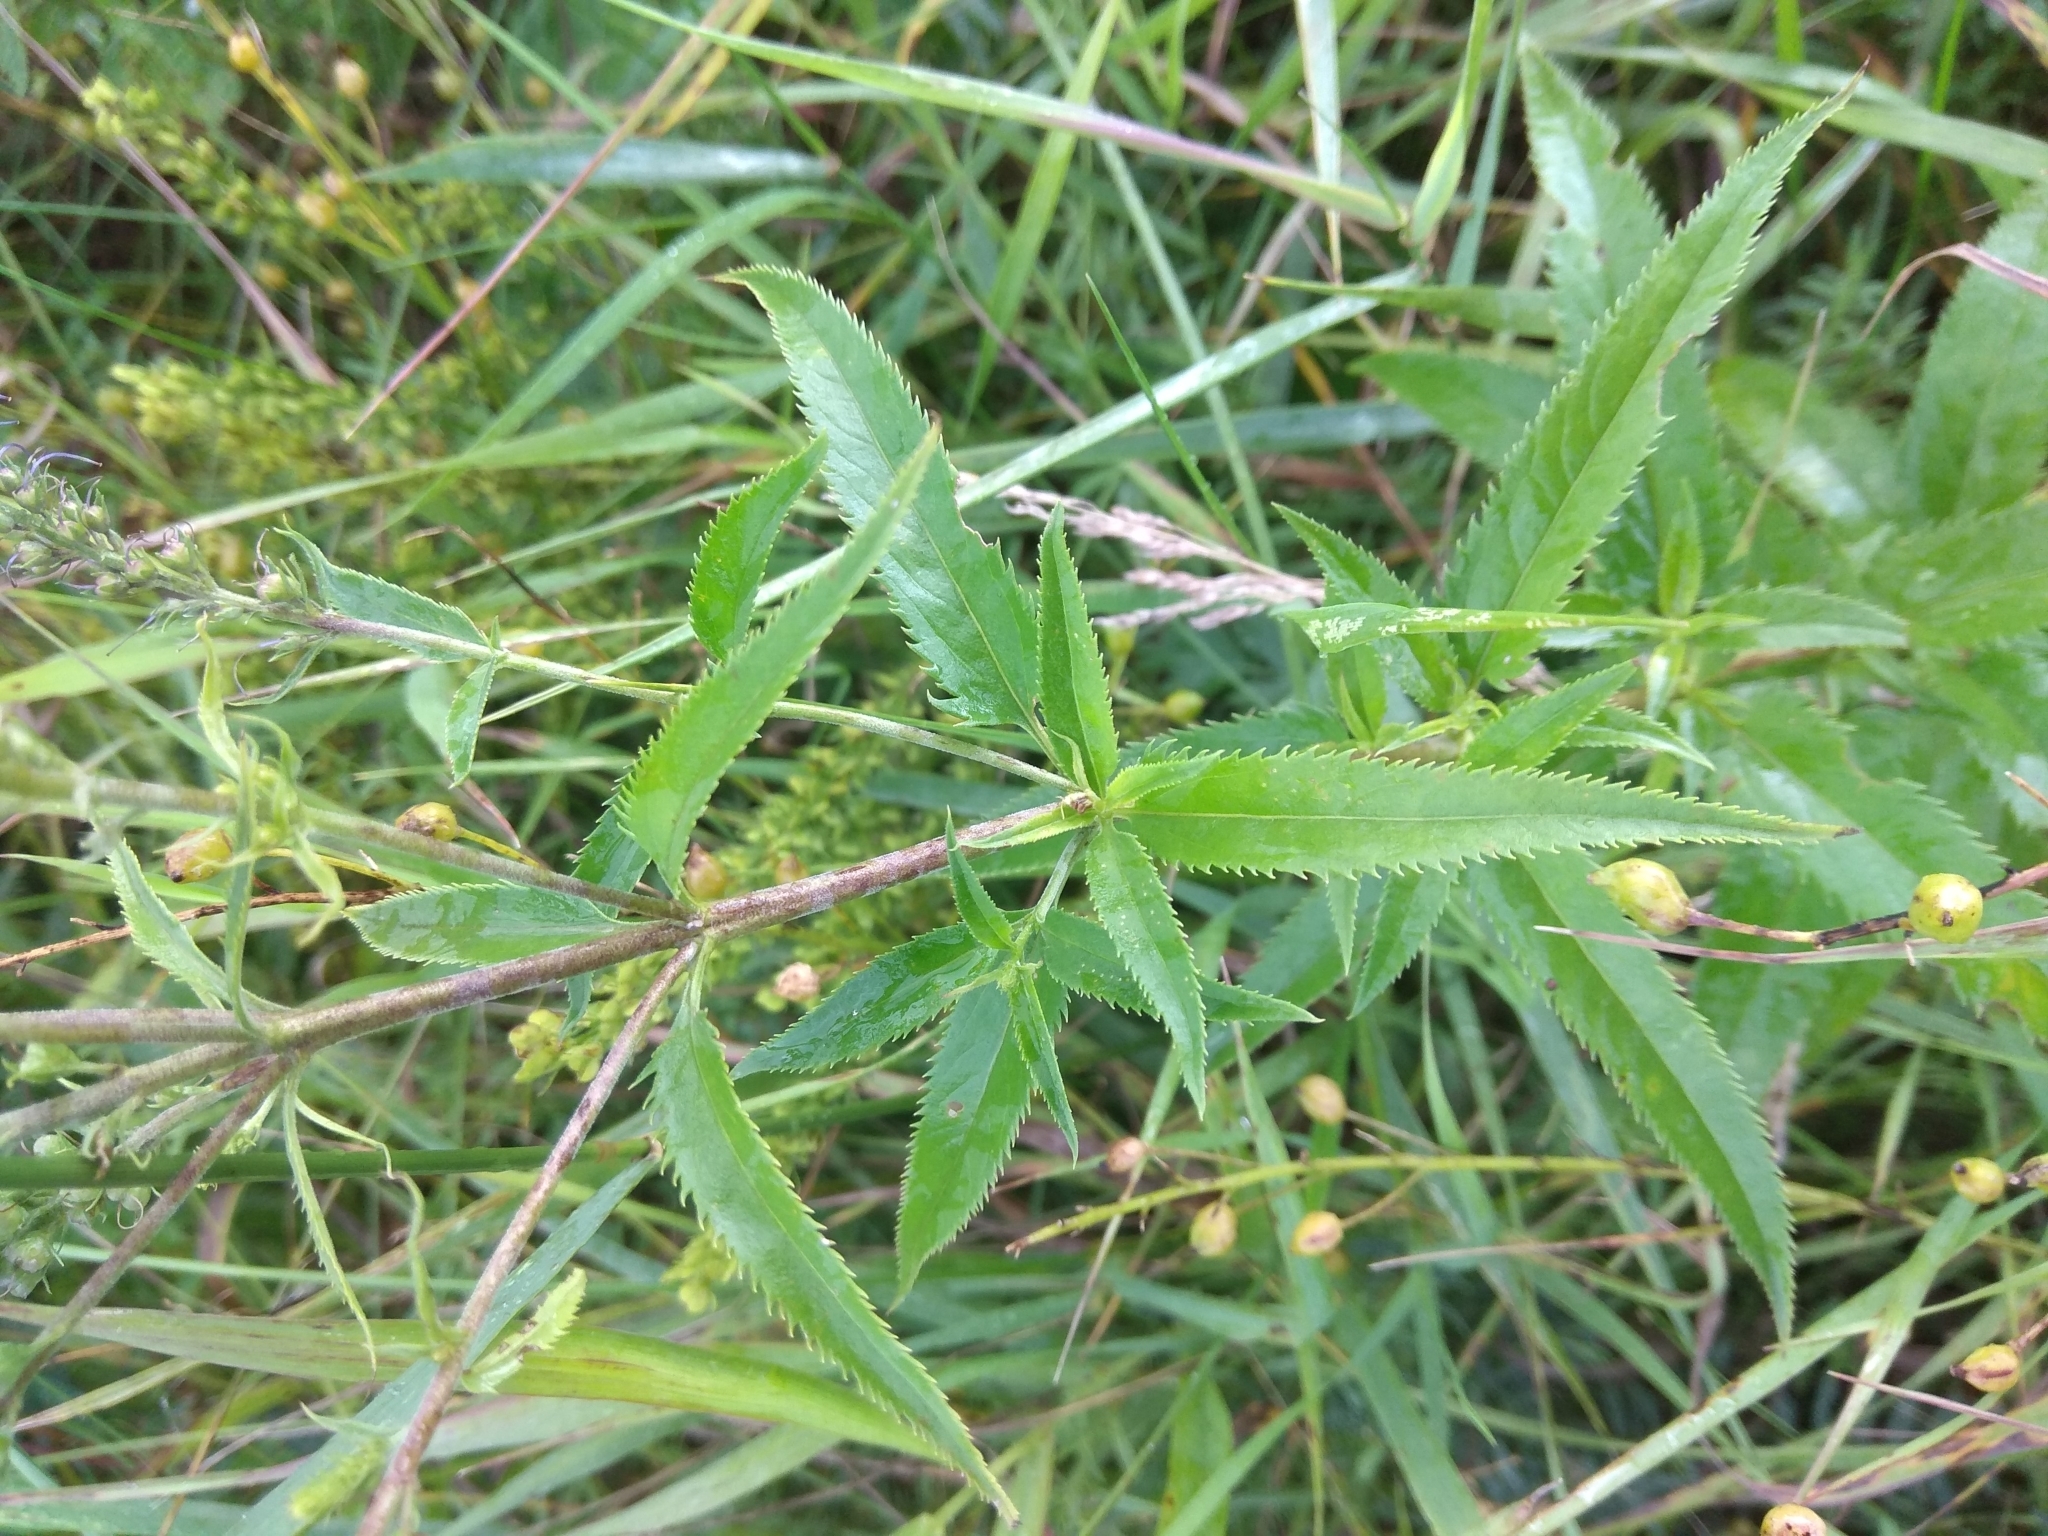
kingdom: Plantae
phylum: Tracheophyta
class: Magnoliopsida
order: Lamiales
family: Plantaginaceae
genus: Veronica
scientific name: Veronica longifolia
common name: Garden speedwell
